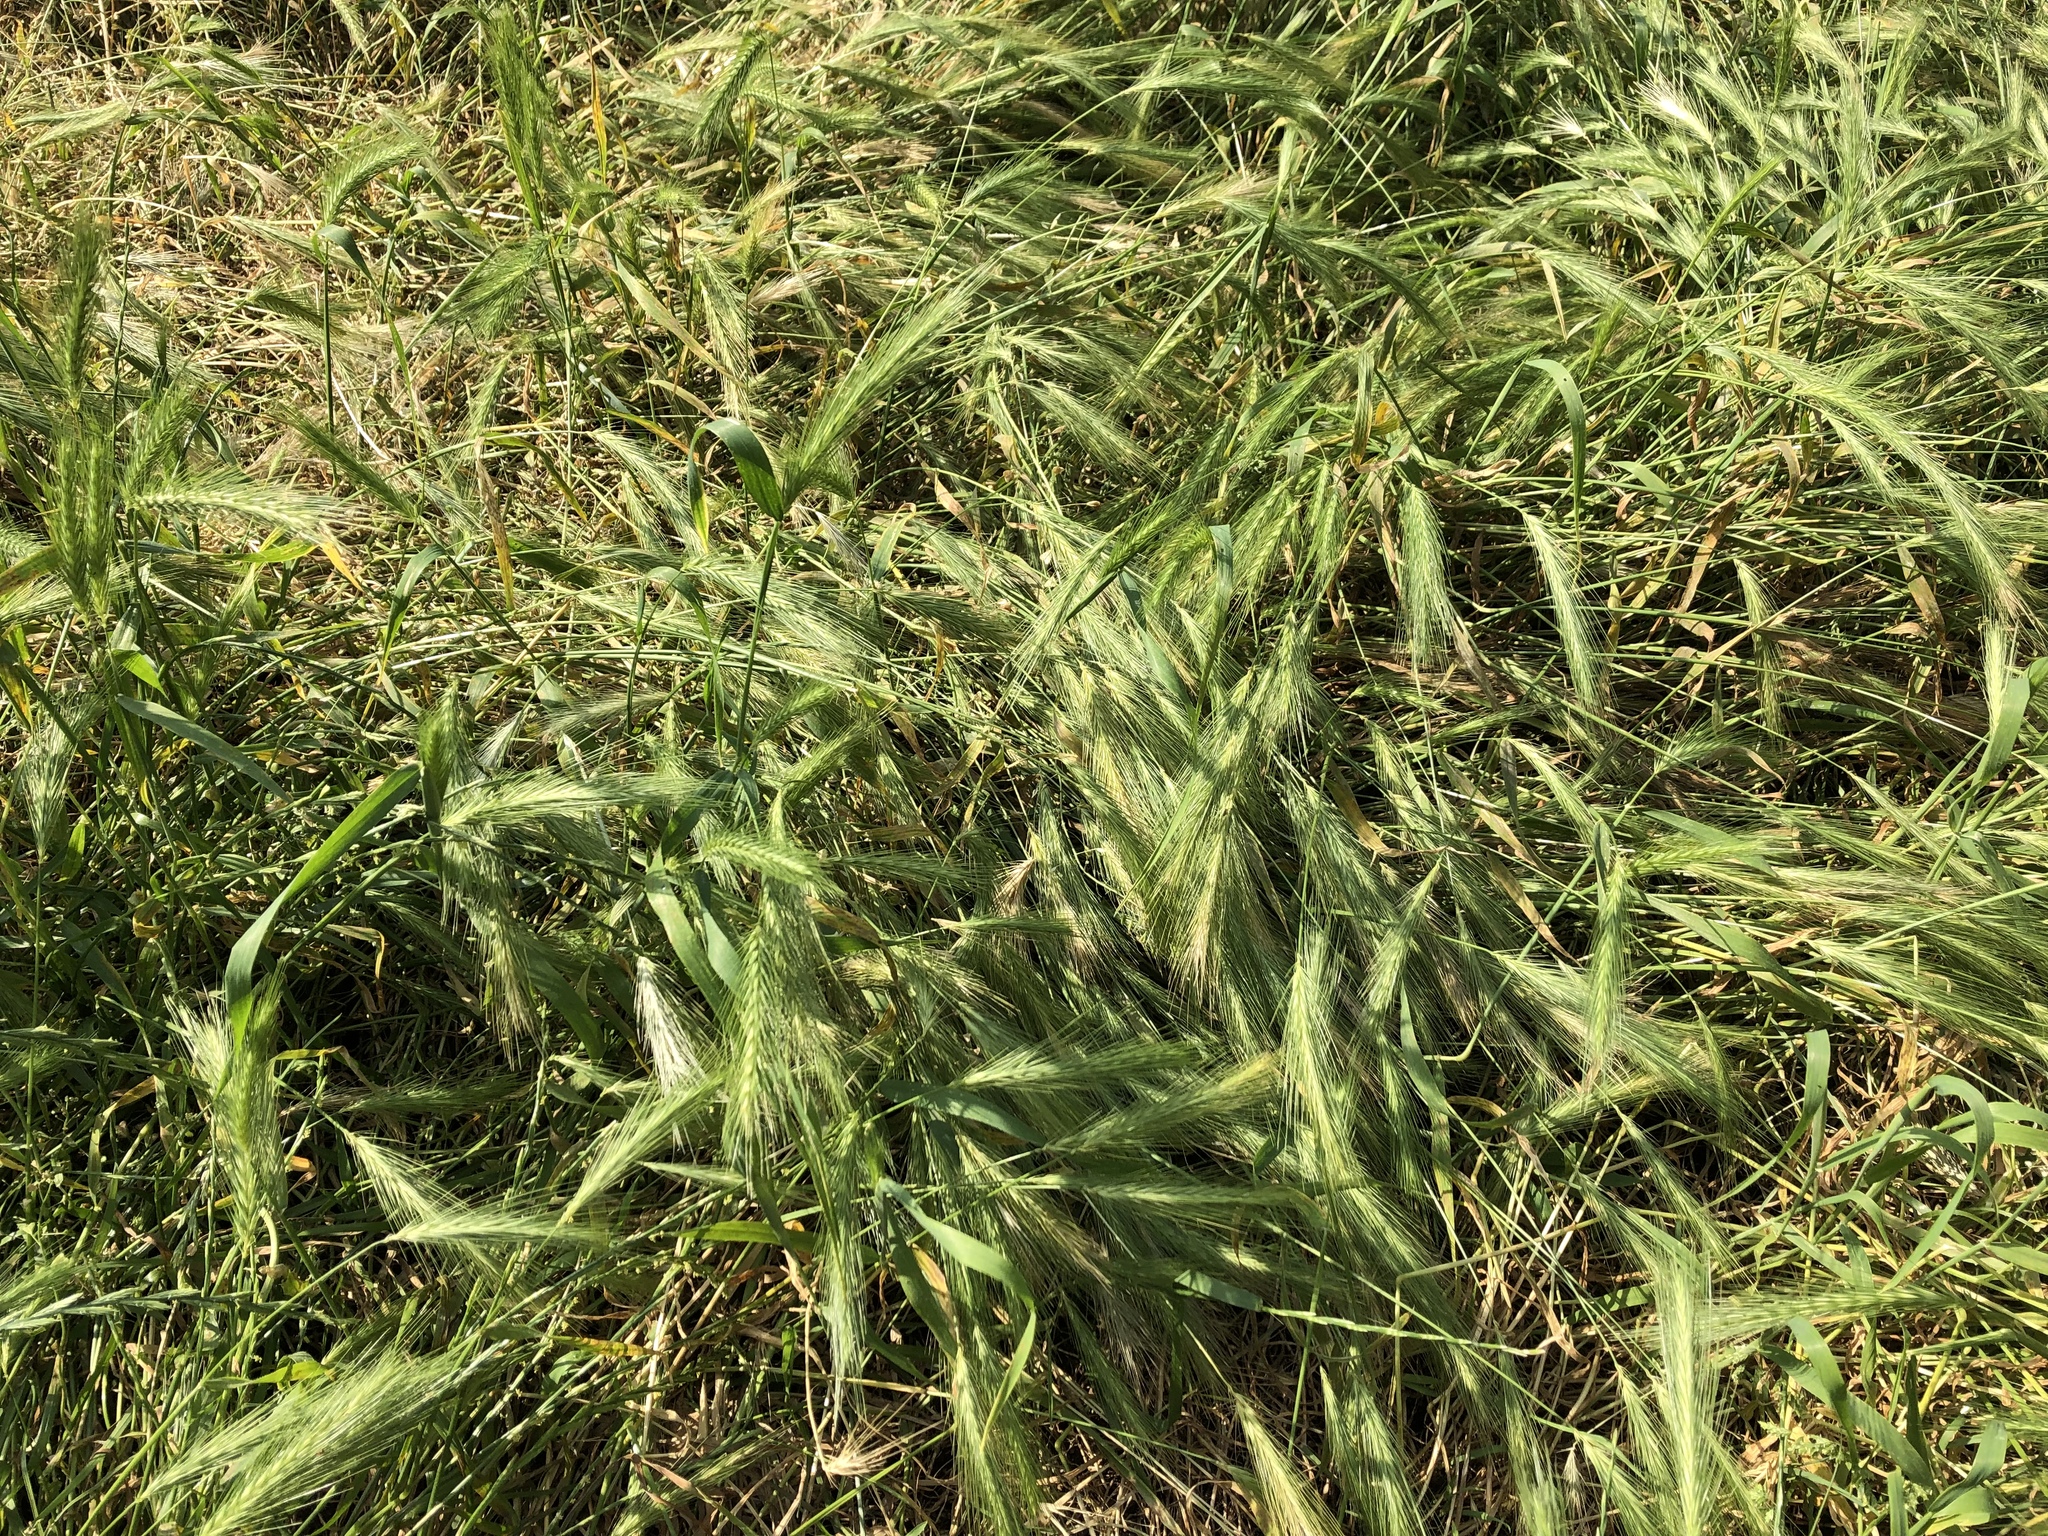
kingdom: Plantae
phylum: Tracheophyta
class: Liliopsida
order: Poales
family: Poaceae
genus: Hordeum
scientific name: Hordeum murinum
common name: Wall barley
